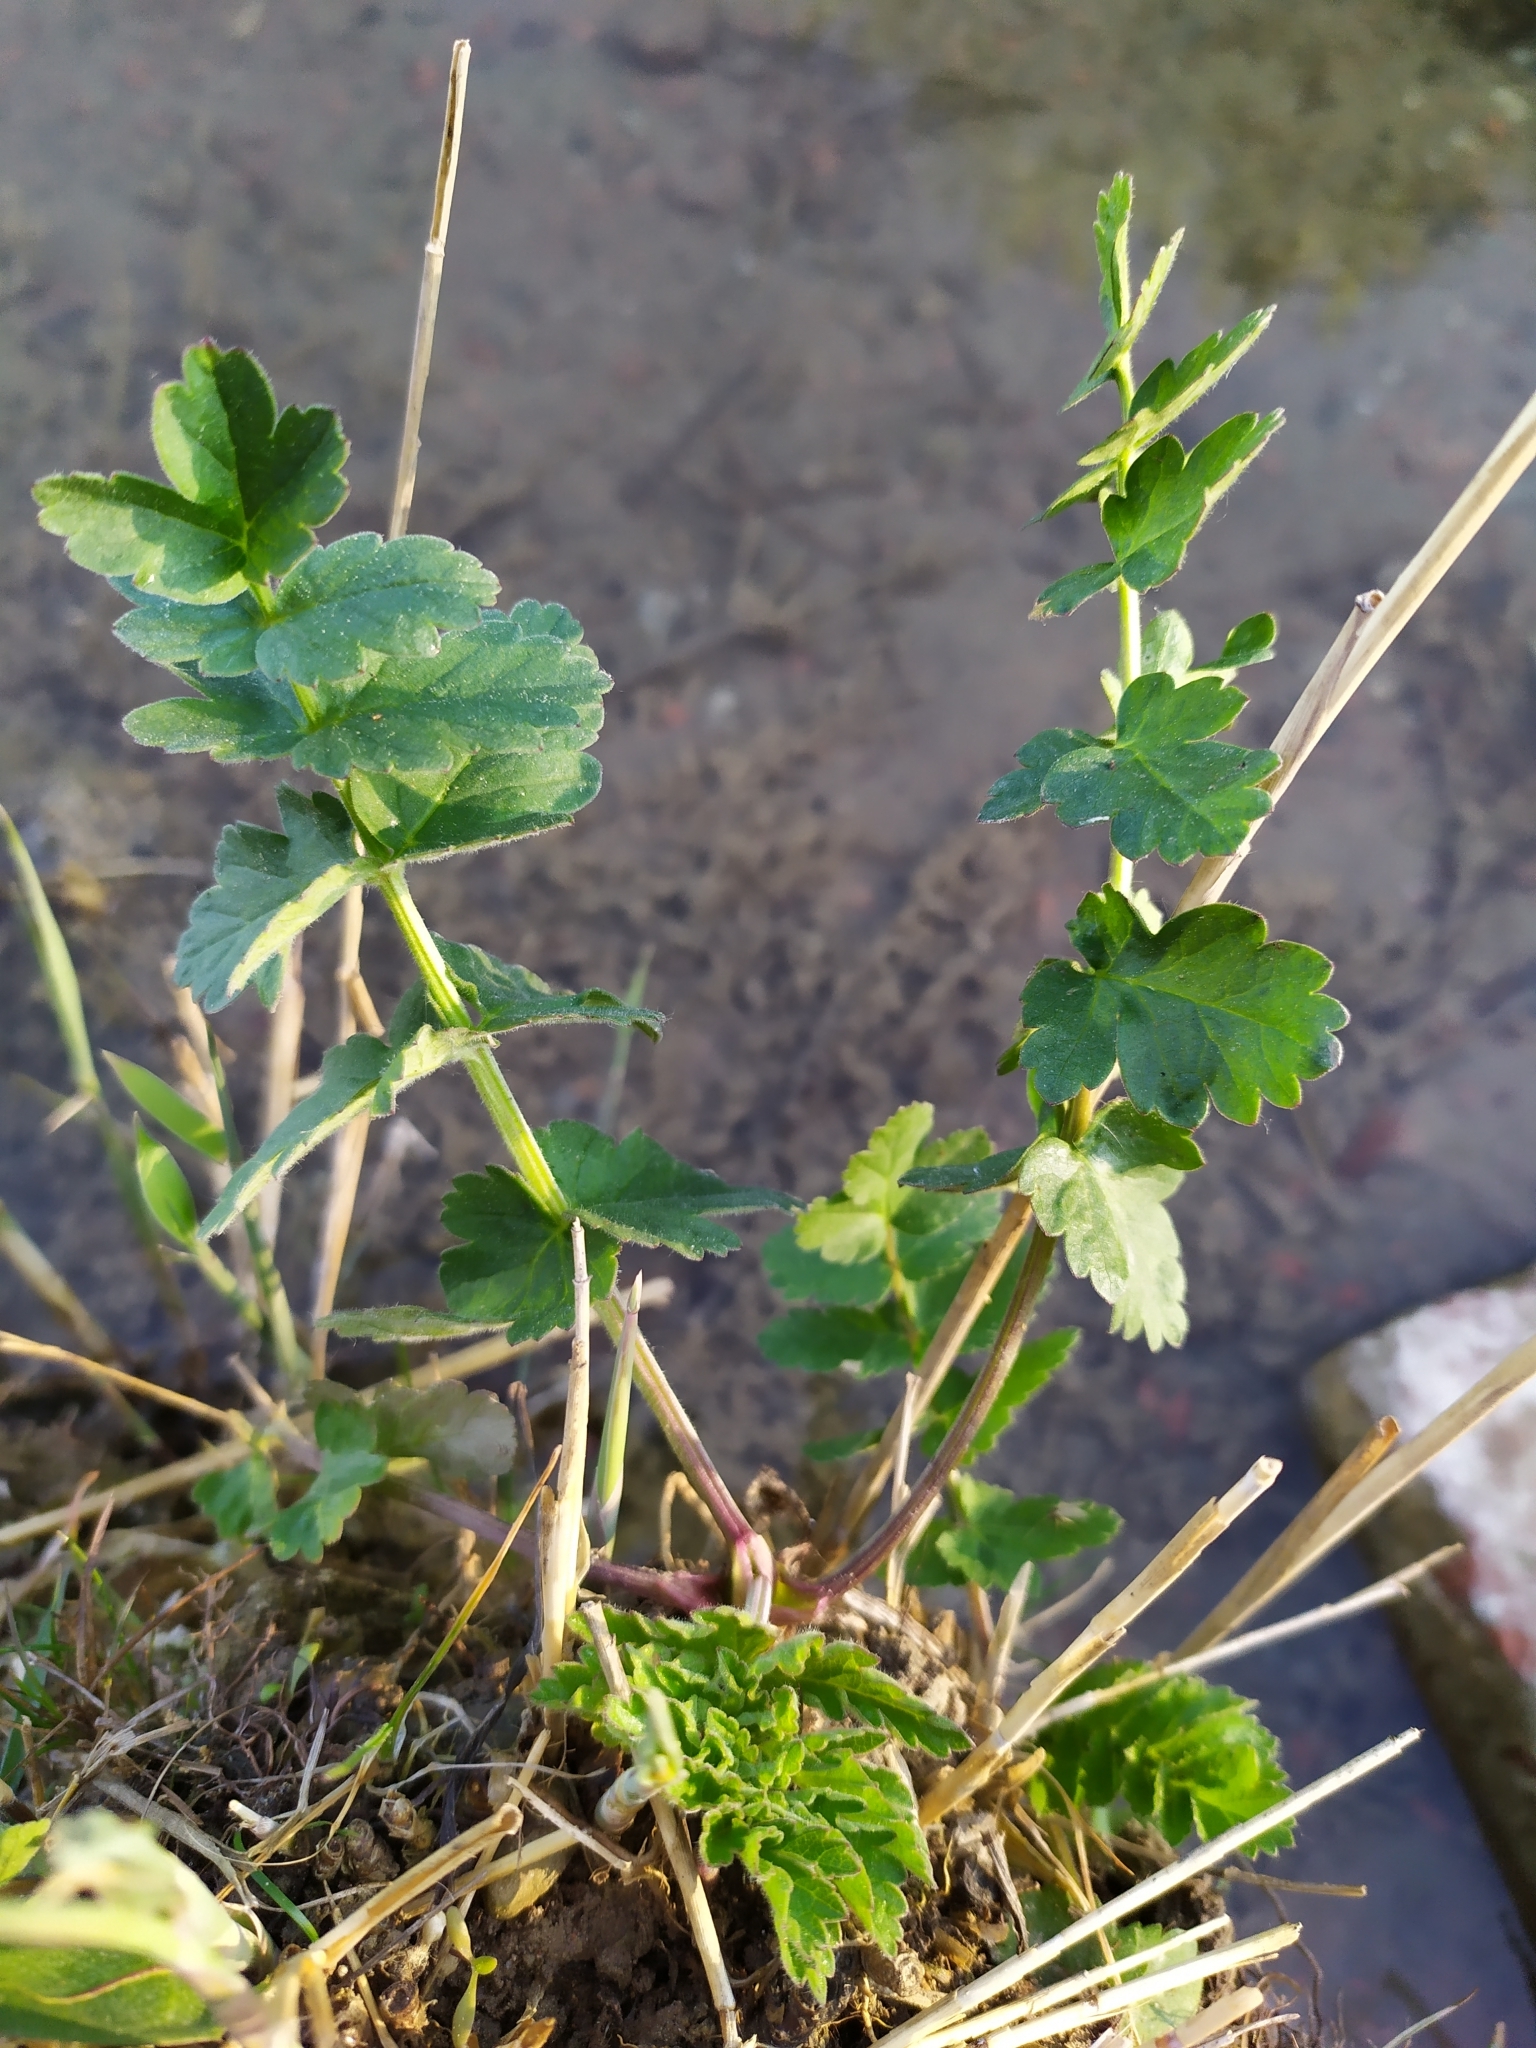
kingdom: Plantae
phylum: Tracheophyta
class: Magnoliopsida
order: Apiales
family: Apiaceae
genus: Pastinaca
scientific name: Pastinaca sativa
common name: Wild parsnip
